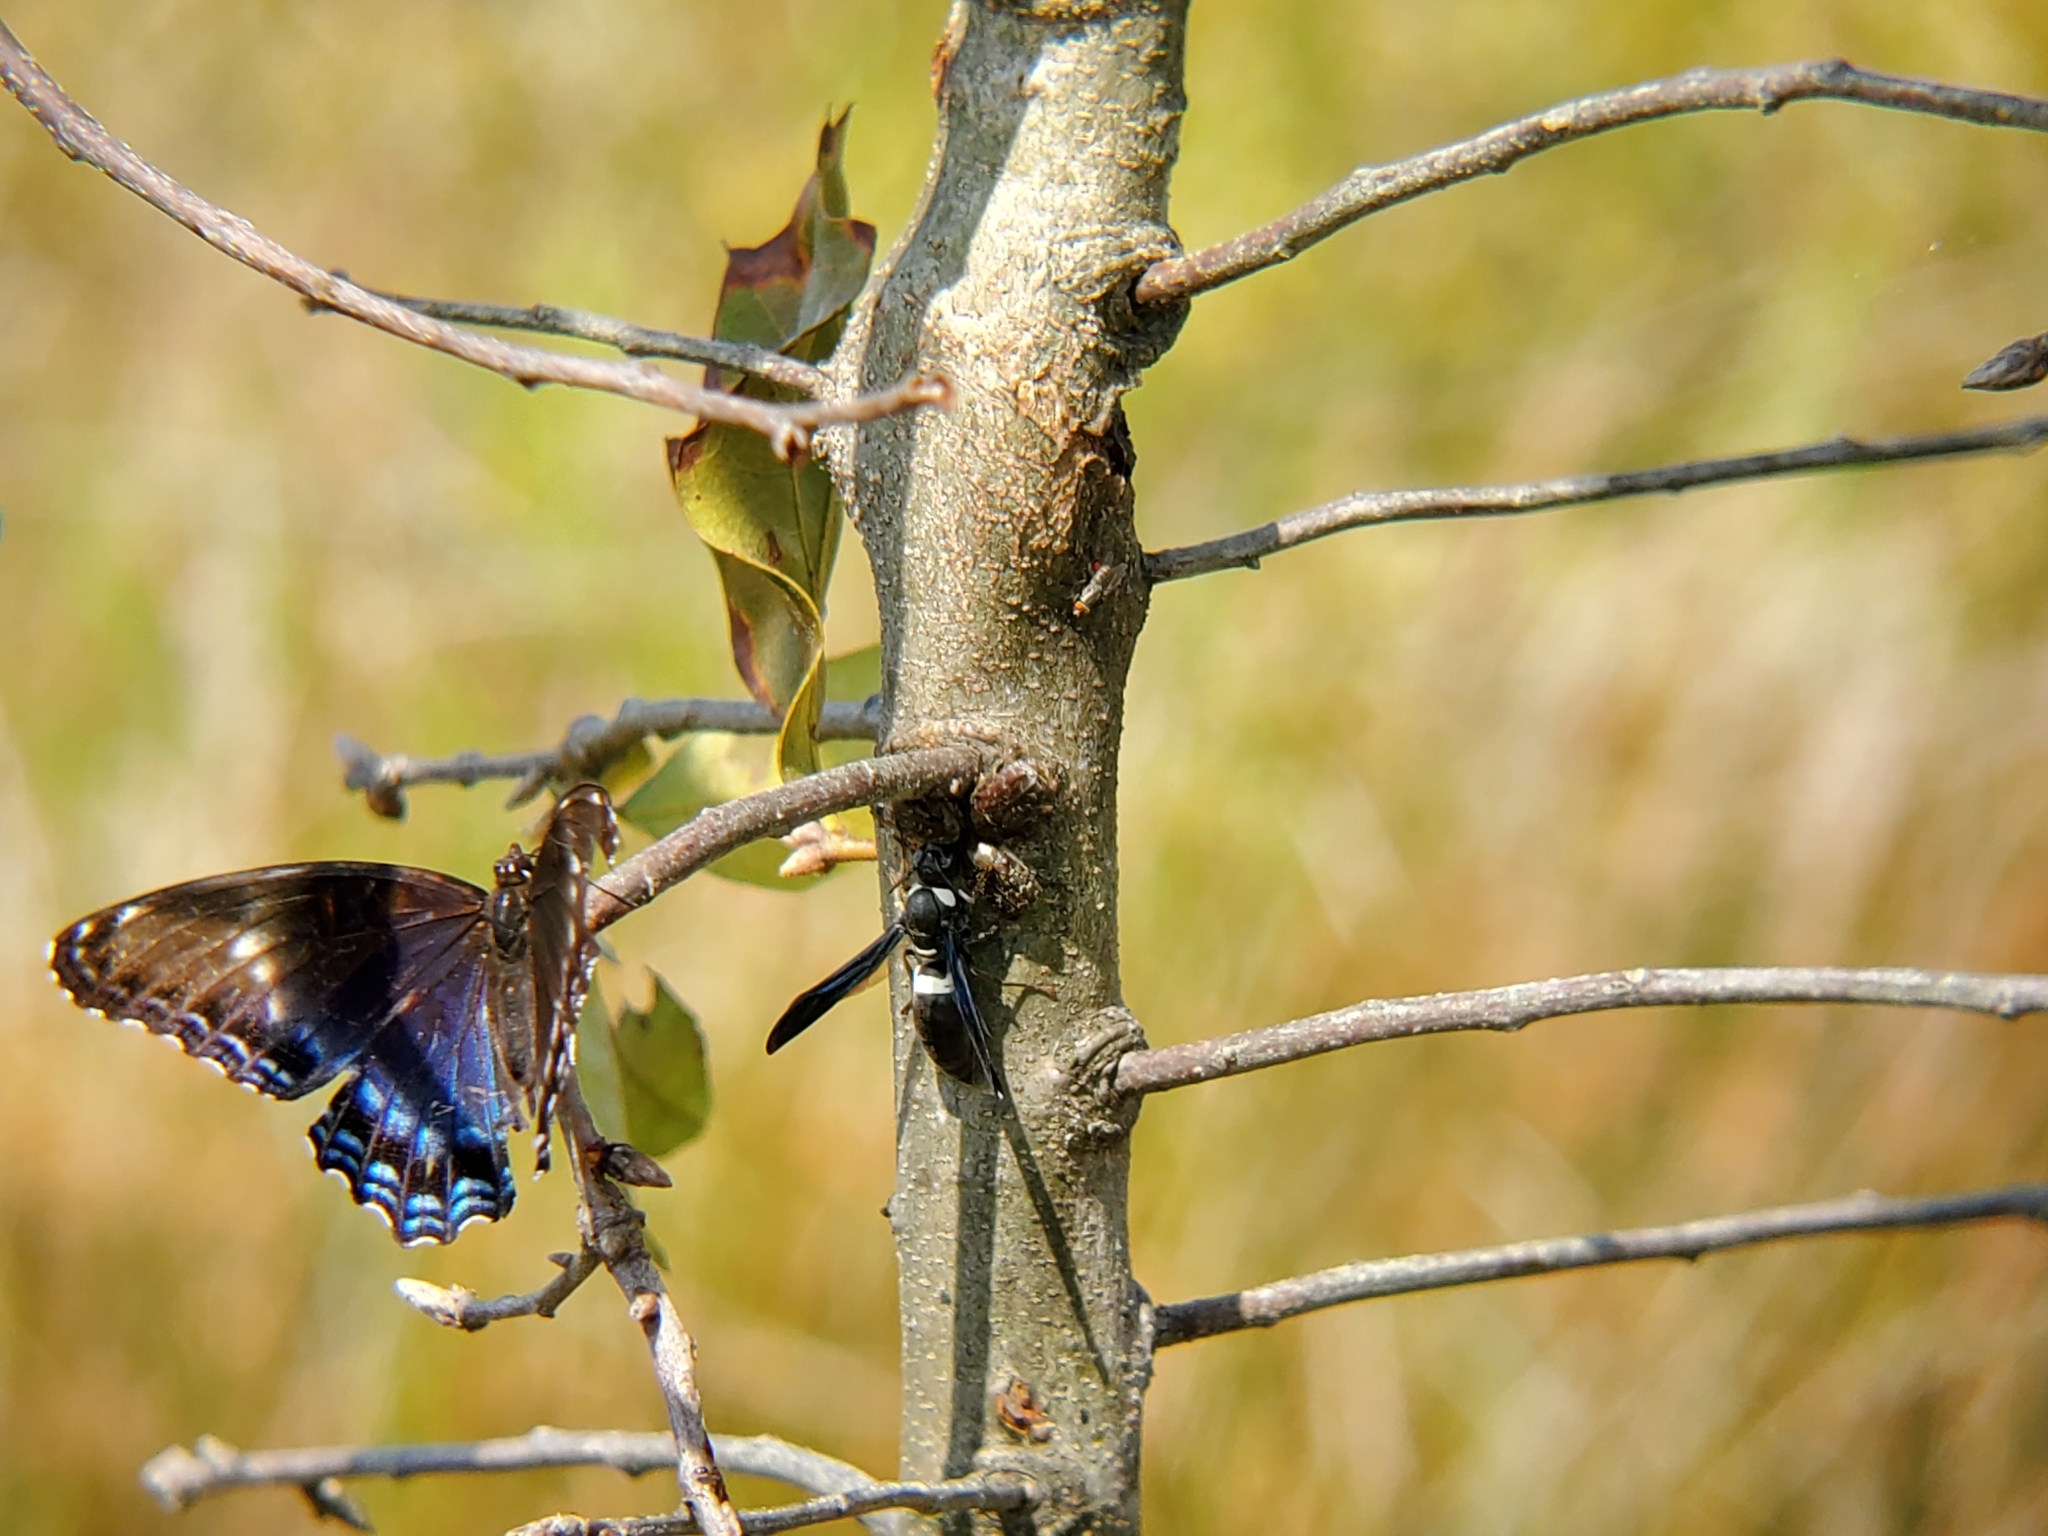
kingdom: Animalia
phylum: Arthropoda
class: Insecta
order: Hymenoptera
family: Eumenidae
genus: Monobia
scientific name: Monobia quadridens
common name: Four-toothed mason wasp
